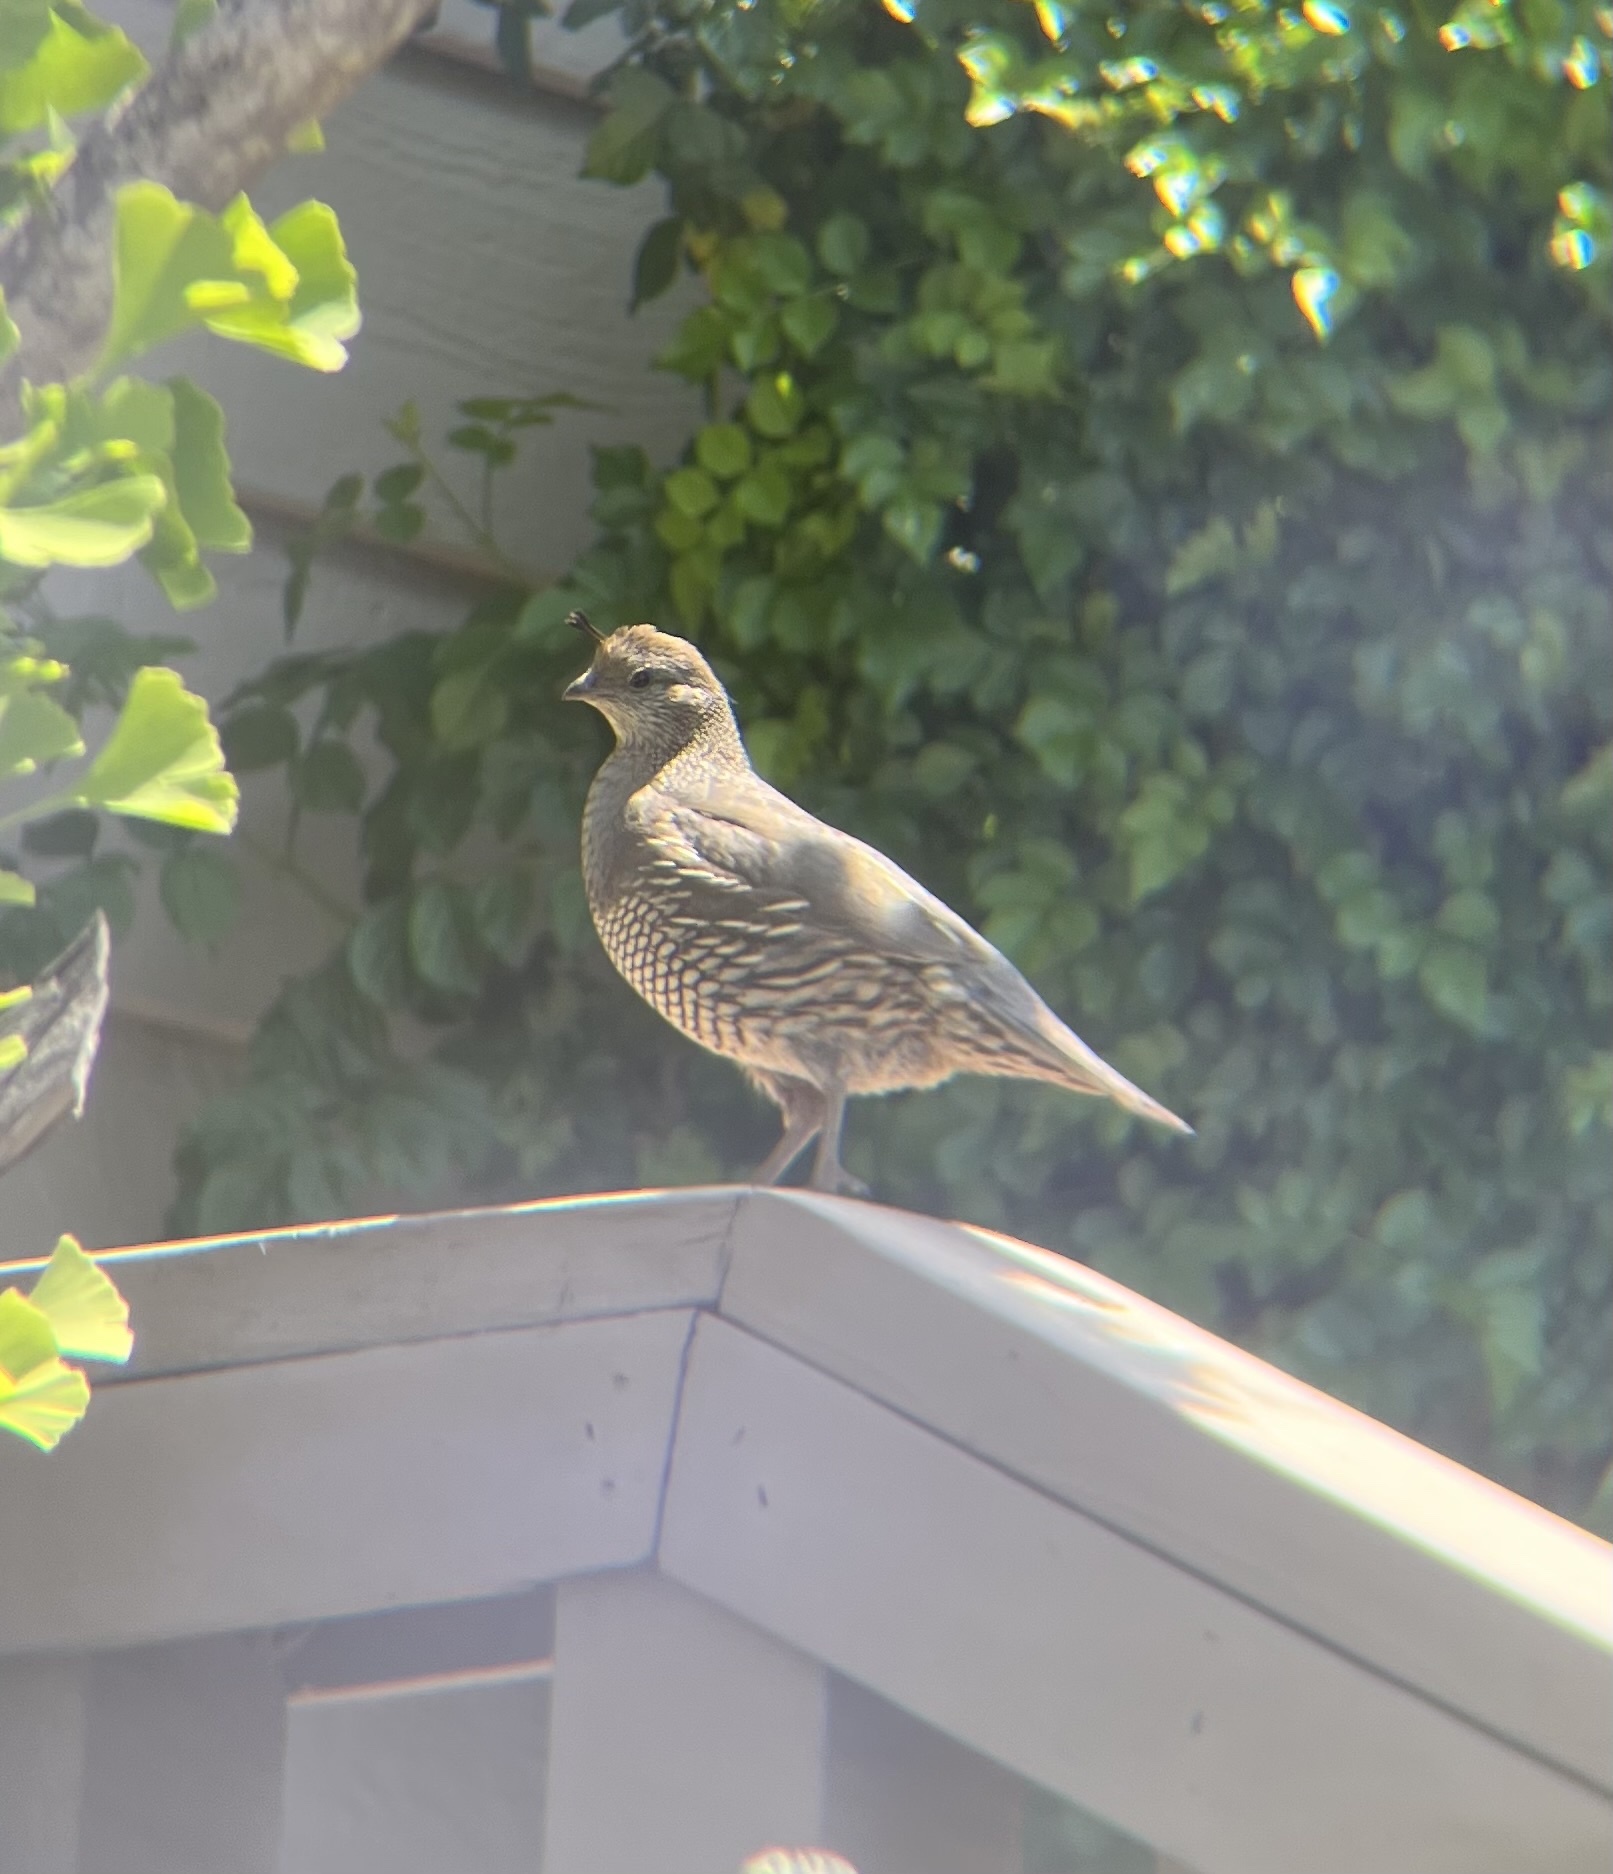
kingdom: Animalia
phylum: Chordata
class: Aves
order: Galliformes
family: Odontophoridae
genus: Callipepla
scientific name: Callipepla californica
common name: California quail
